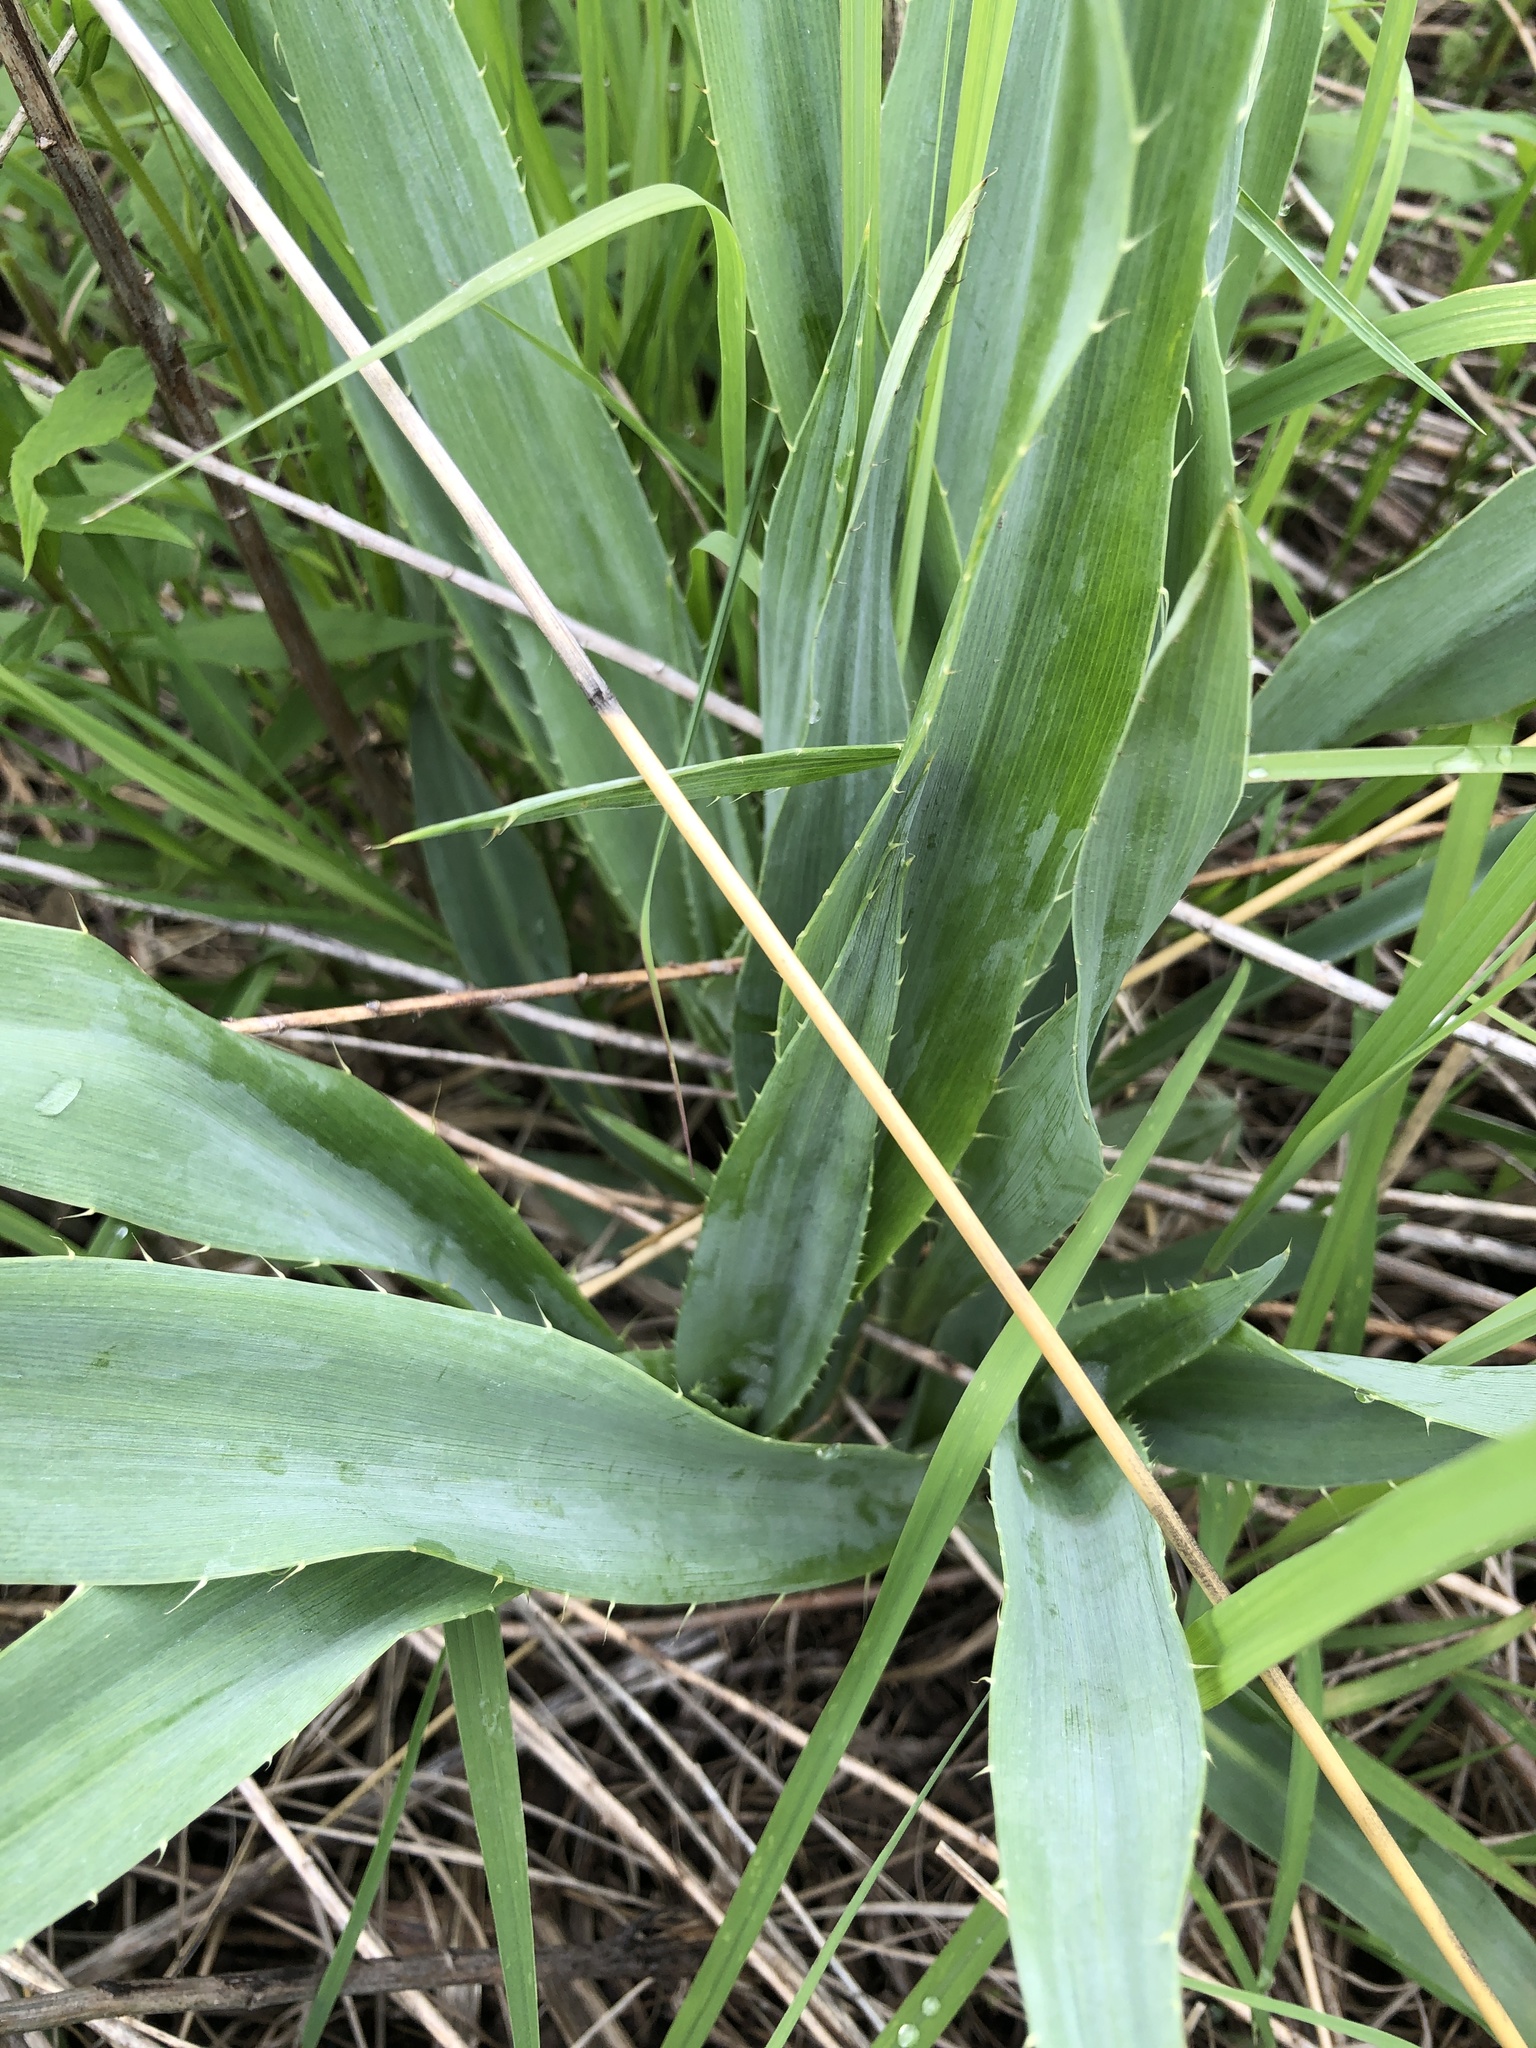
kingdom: Plantae
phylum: Tracheophyta
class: Magnoliopsida
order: Apiales
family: Apiaceae
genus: Eryngium
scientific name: Eryngium yuccifolium
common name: Button eryngo
